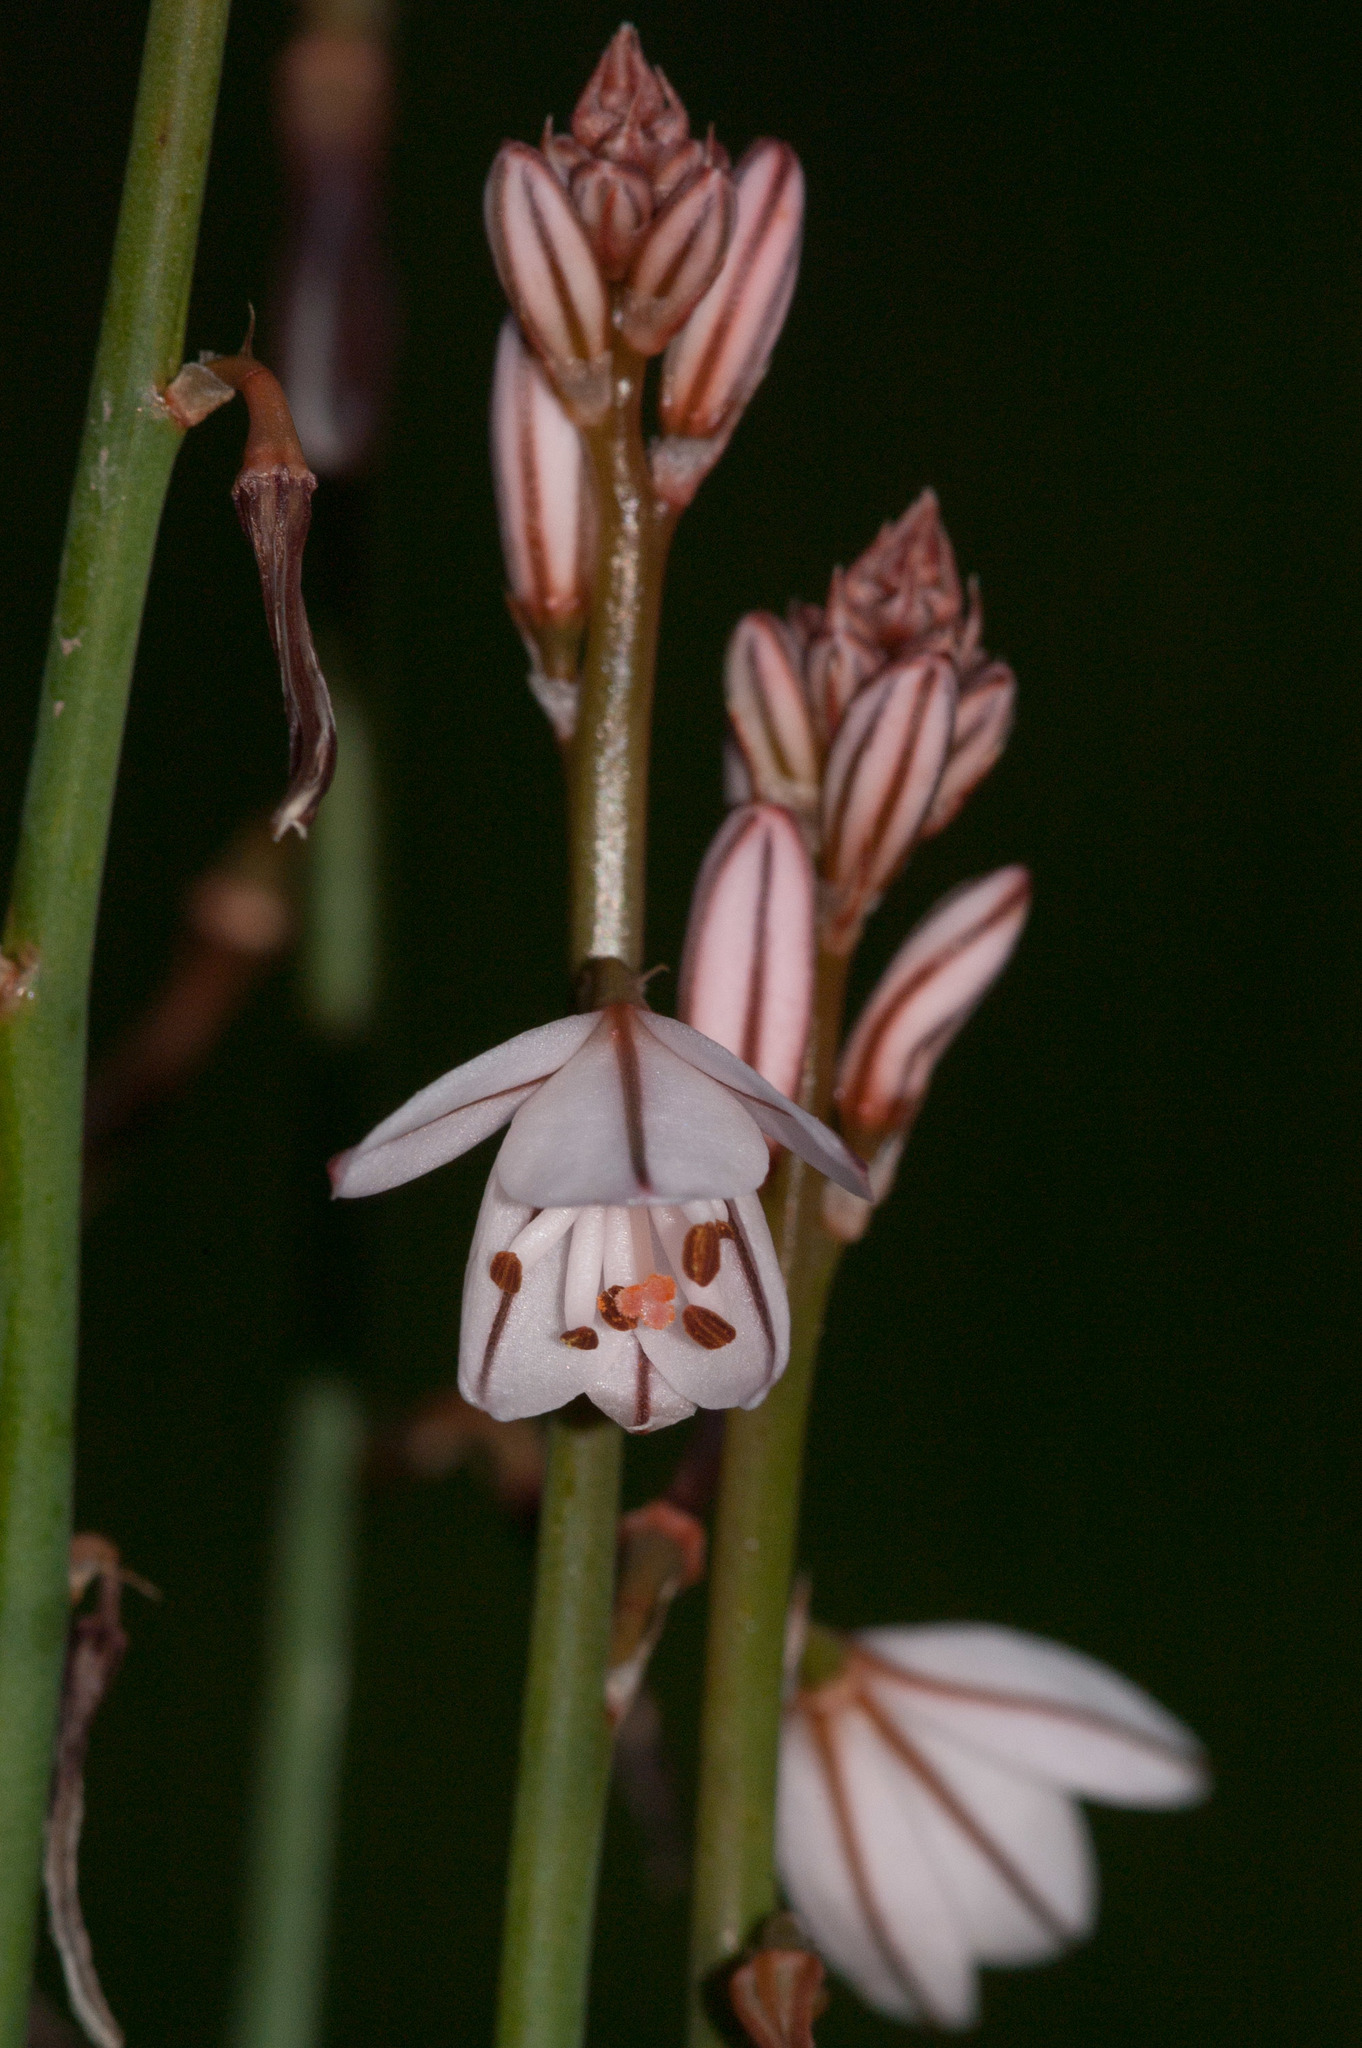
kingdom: Plantae
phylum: Tracheophyta
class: Liliopsida
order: Asparagales
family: Asphodelaceae
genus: Asphodelus
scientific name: Asphodelus fistulosus
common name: Onionweed
